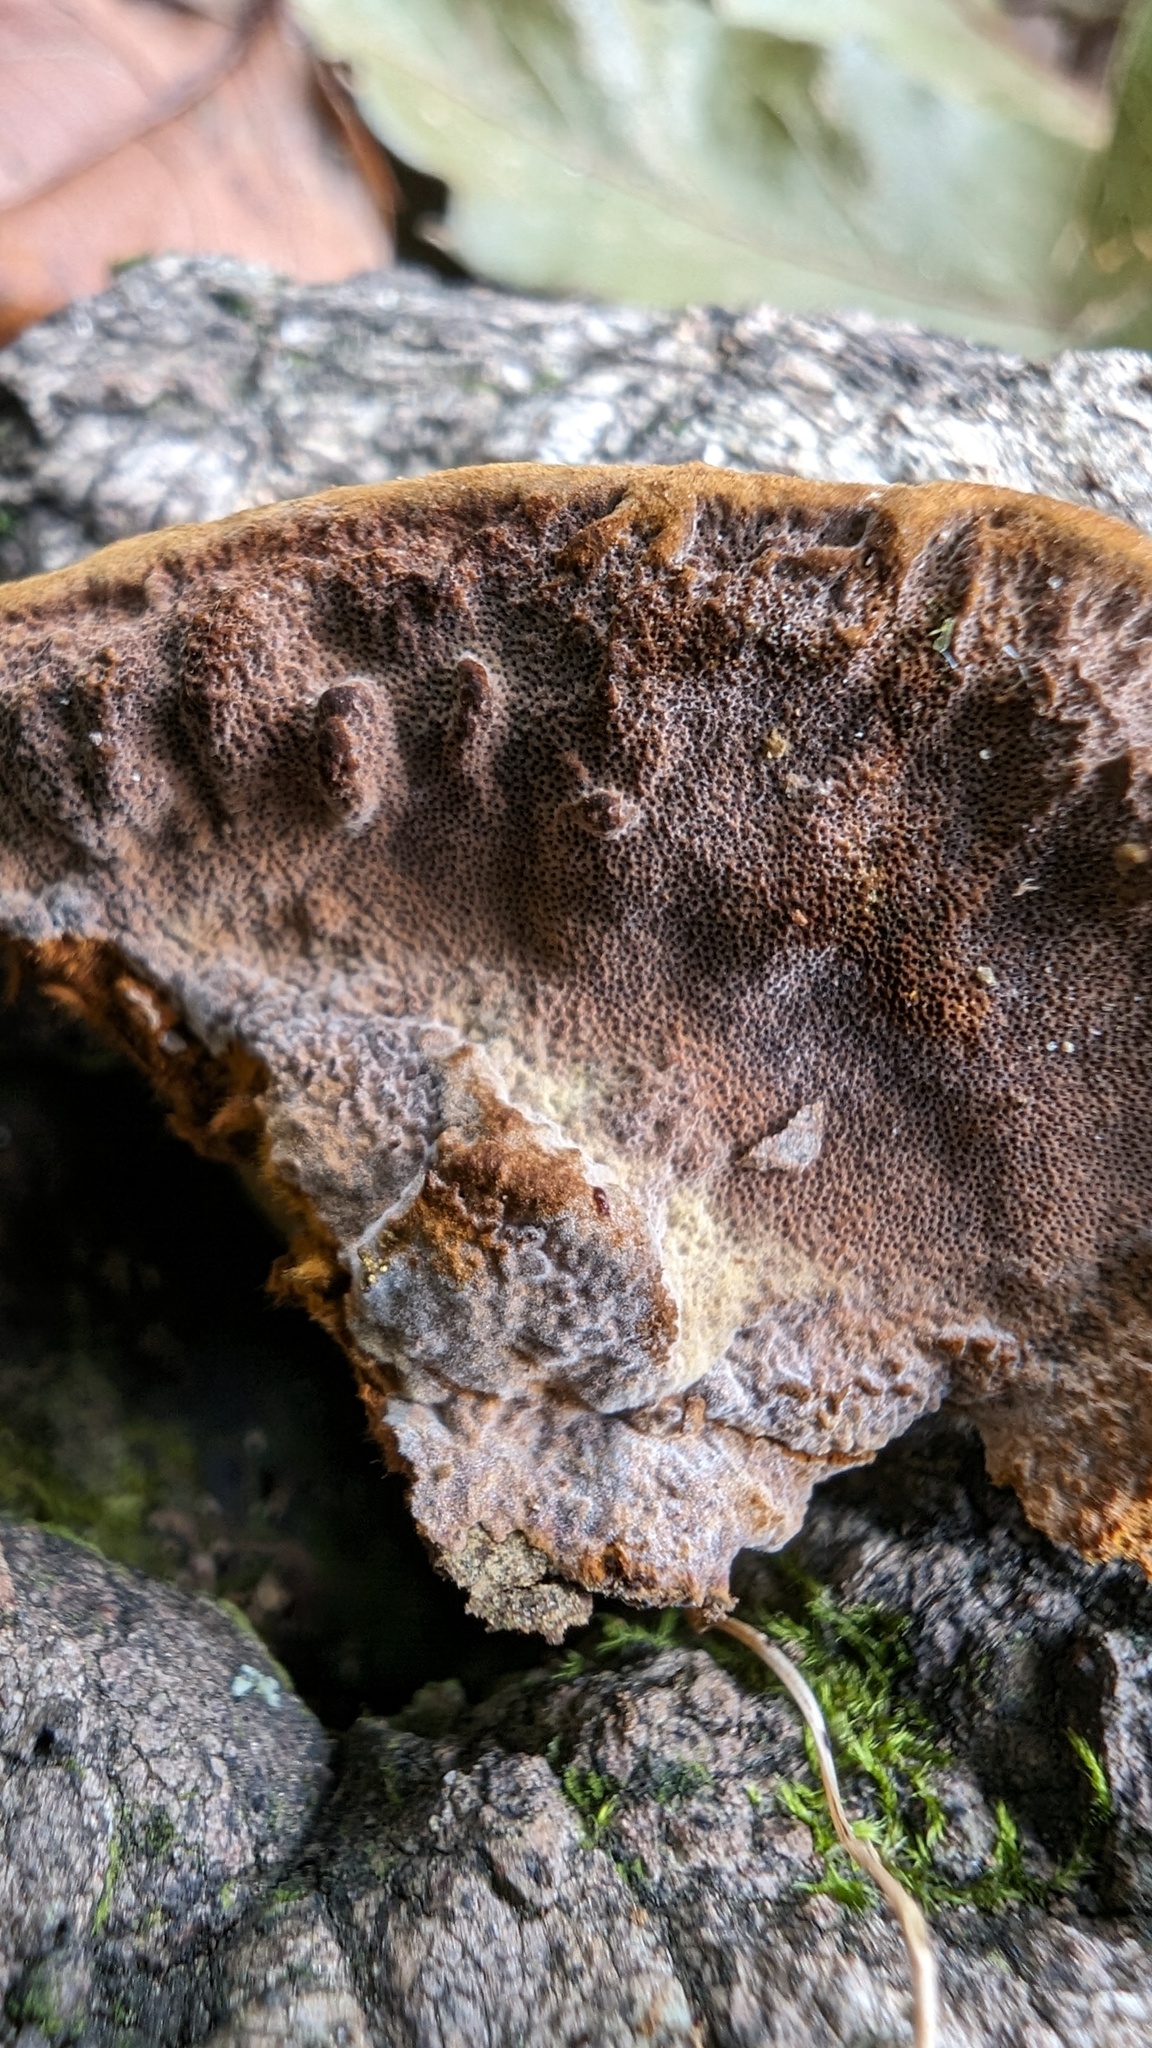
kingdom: Fungi
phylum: Basidiomycota
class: Agaricomycetes
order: Hymenochaetales
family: Hymenochaetaceae
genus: Phellinus
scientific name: Phellinus gilvus
